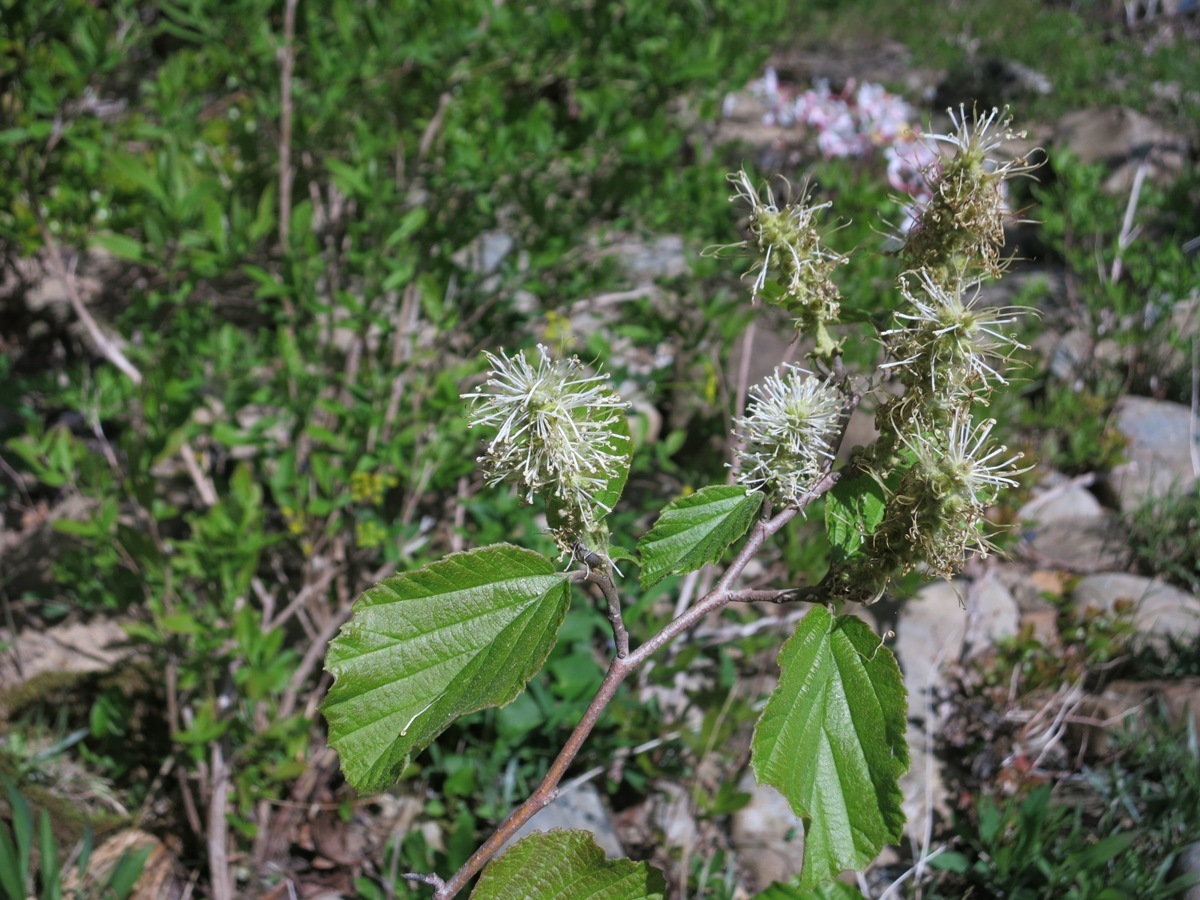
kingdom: Plantae
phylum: Tracheophyta
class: Magnoliopsida
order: Saxifragales
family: Hamamelidaceae
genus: Fothergilla
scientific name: Fothergilla latifolia
